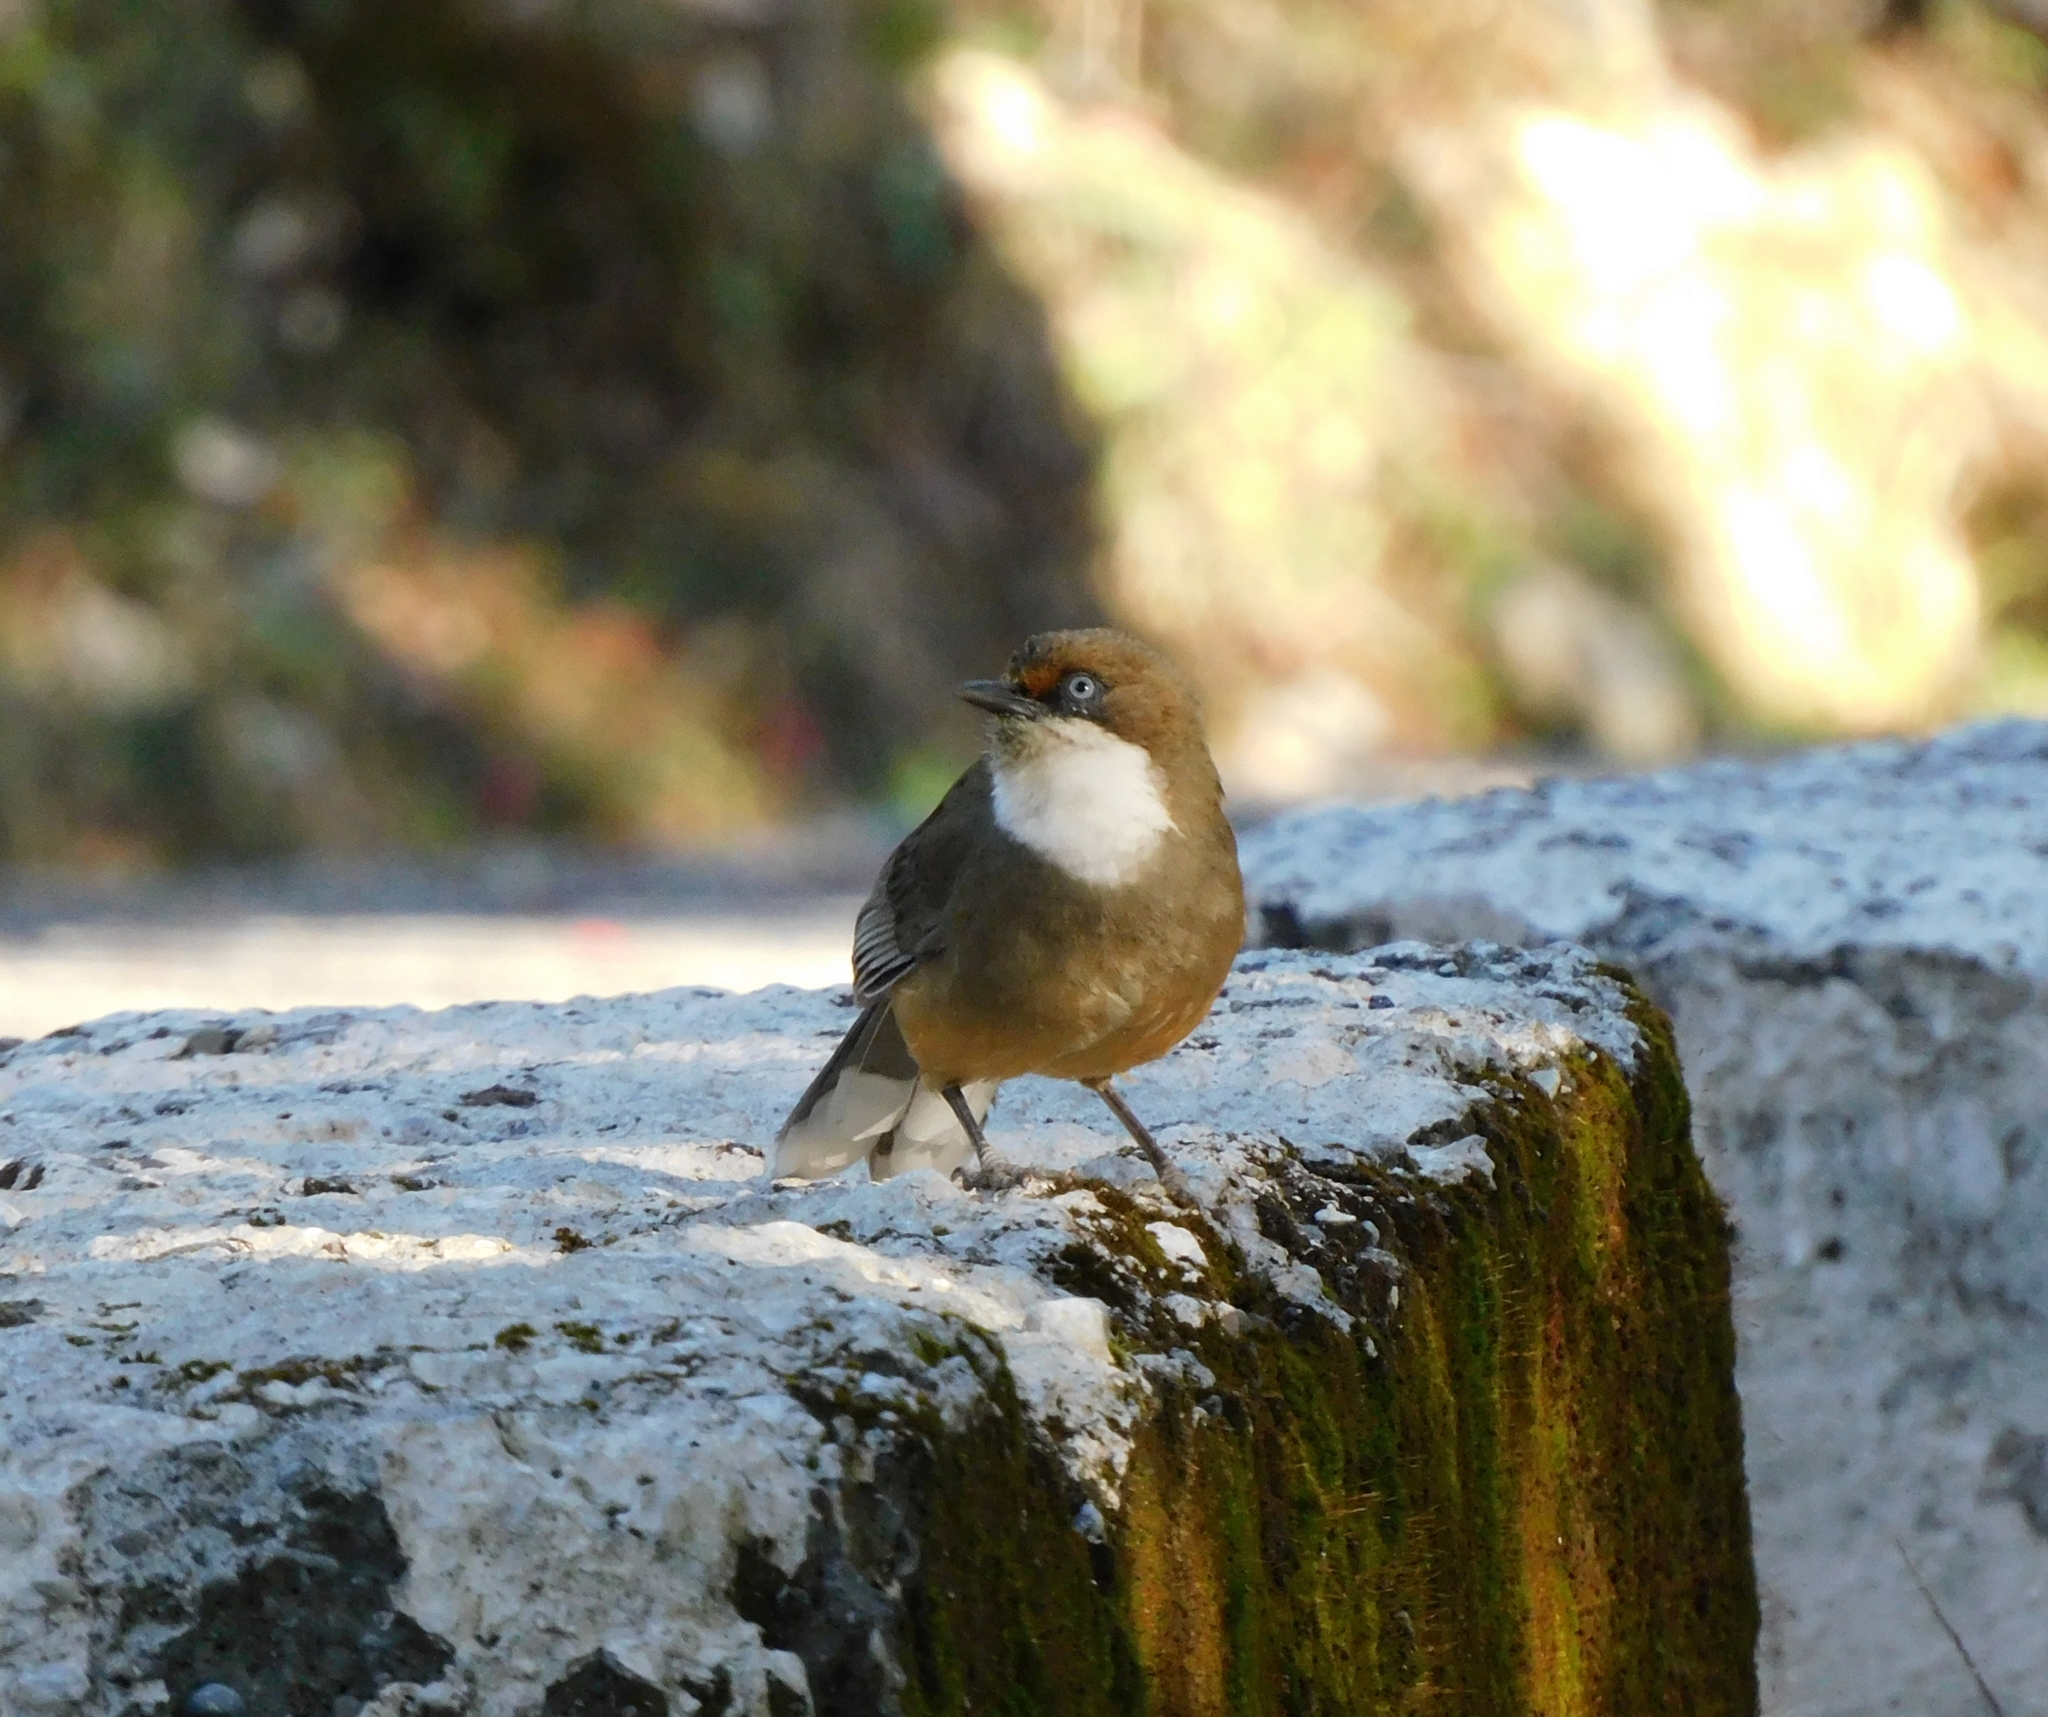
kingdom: Animalia
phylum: Chordata
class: Aves
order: Passeriformes
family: Leiothrichidae
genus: Garrulax
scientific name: Garrulax albogularis
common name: White-throated laughingthrush
